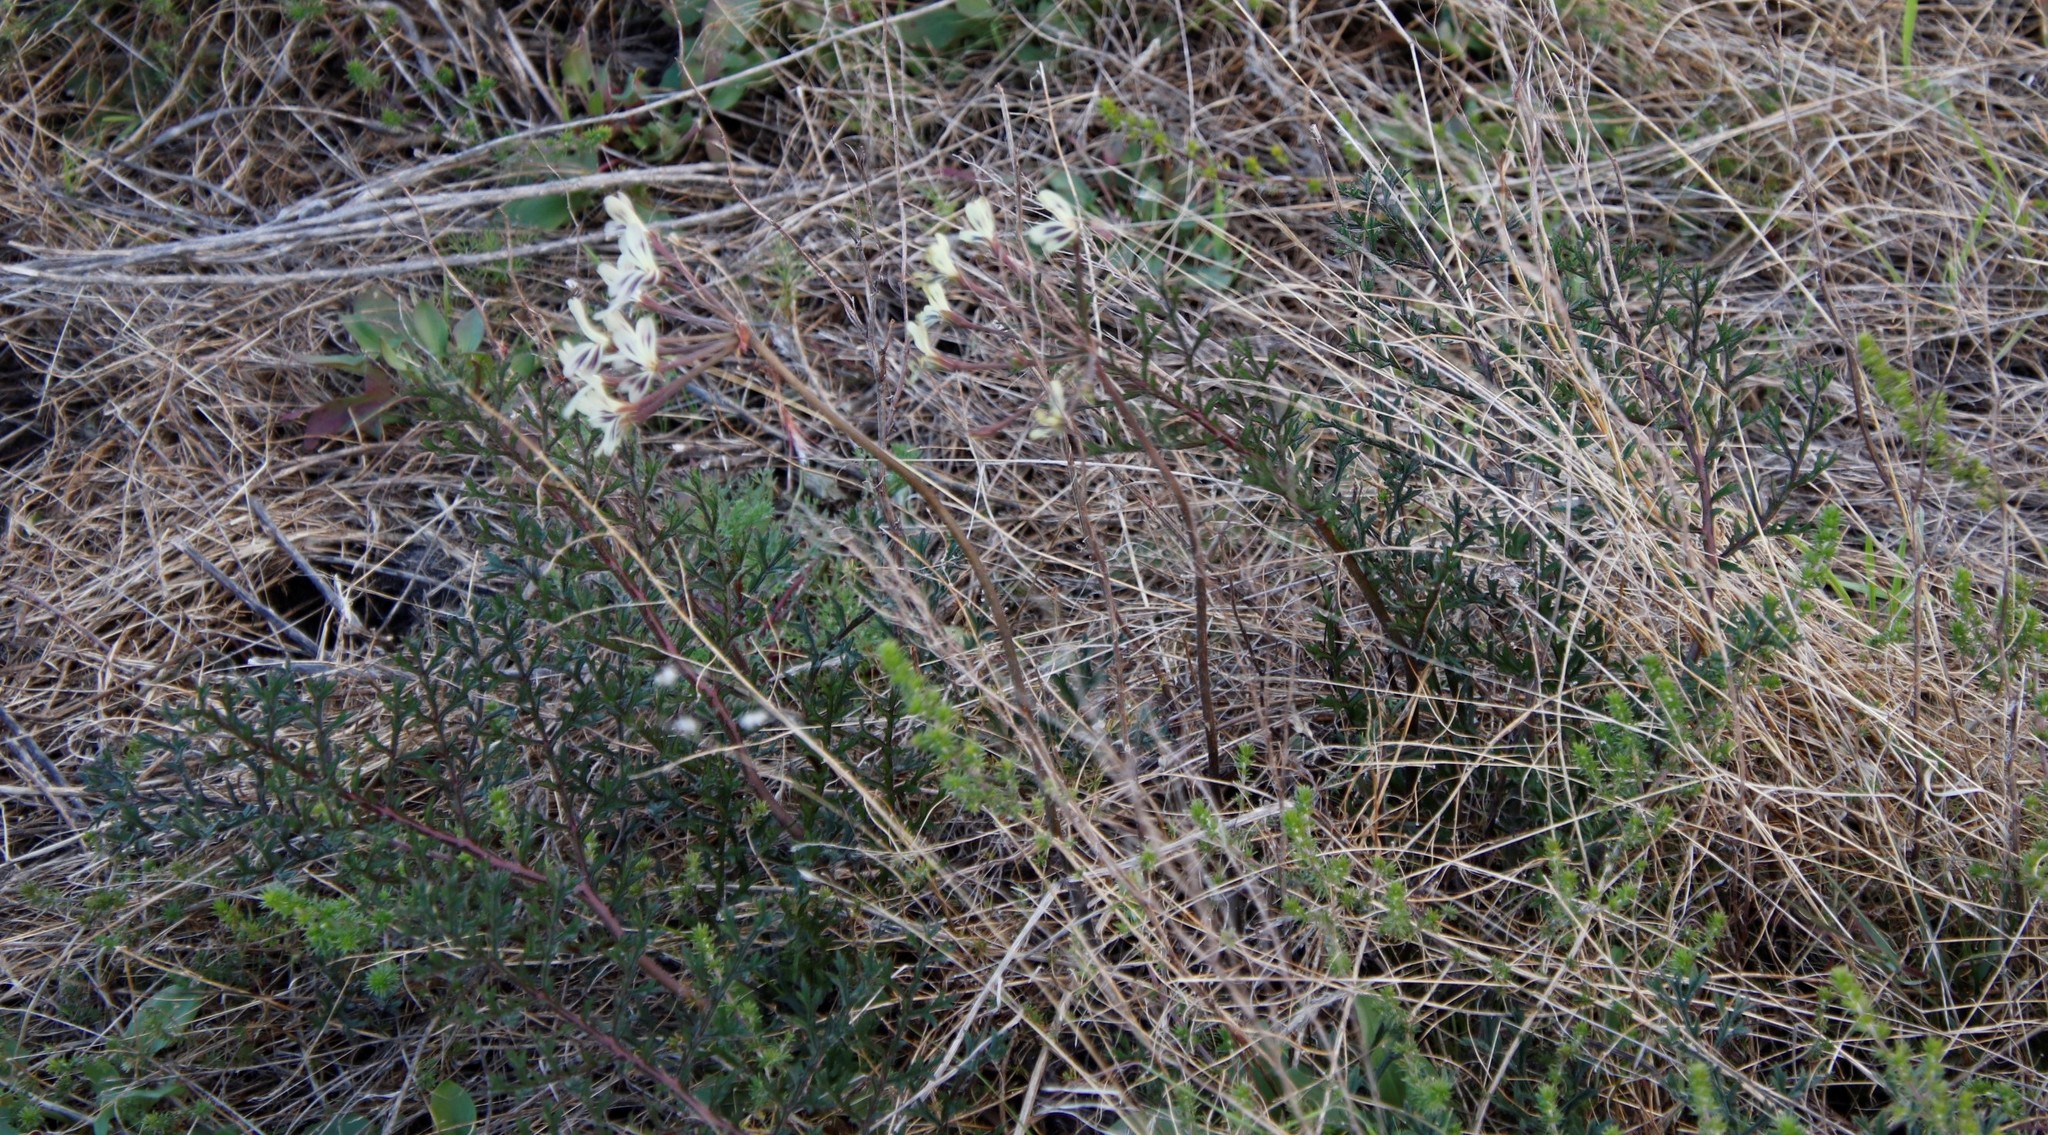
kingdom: Plantae
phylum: Tracheophyta
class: Magnoliopsida
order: Geraniales
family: Geraniaceae
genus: Pelargonium
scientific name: Pelargonium triste
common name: Night-scent pelargonium
